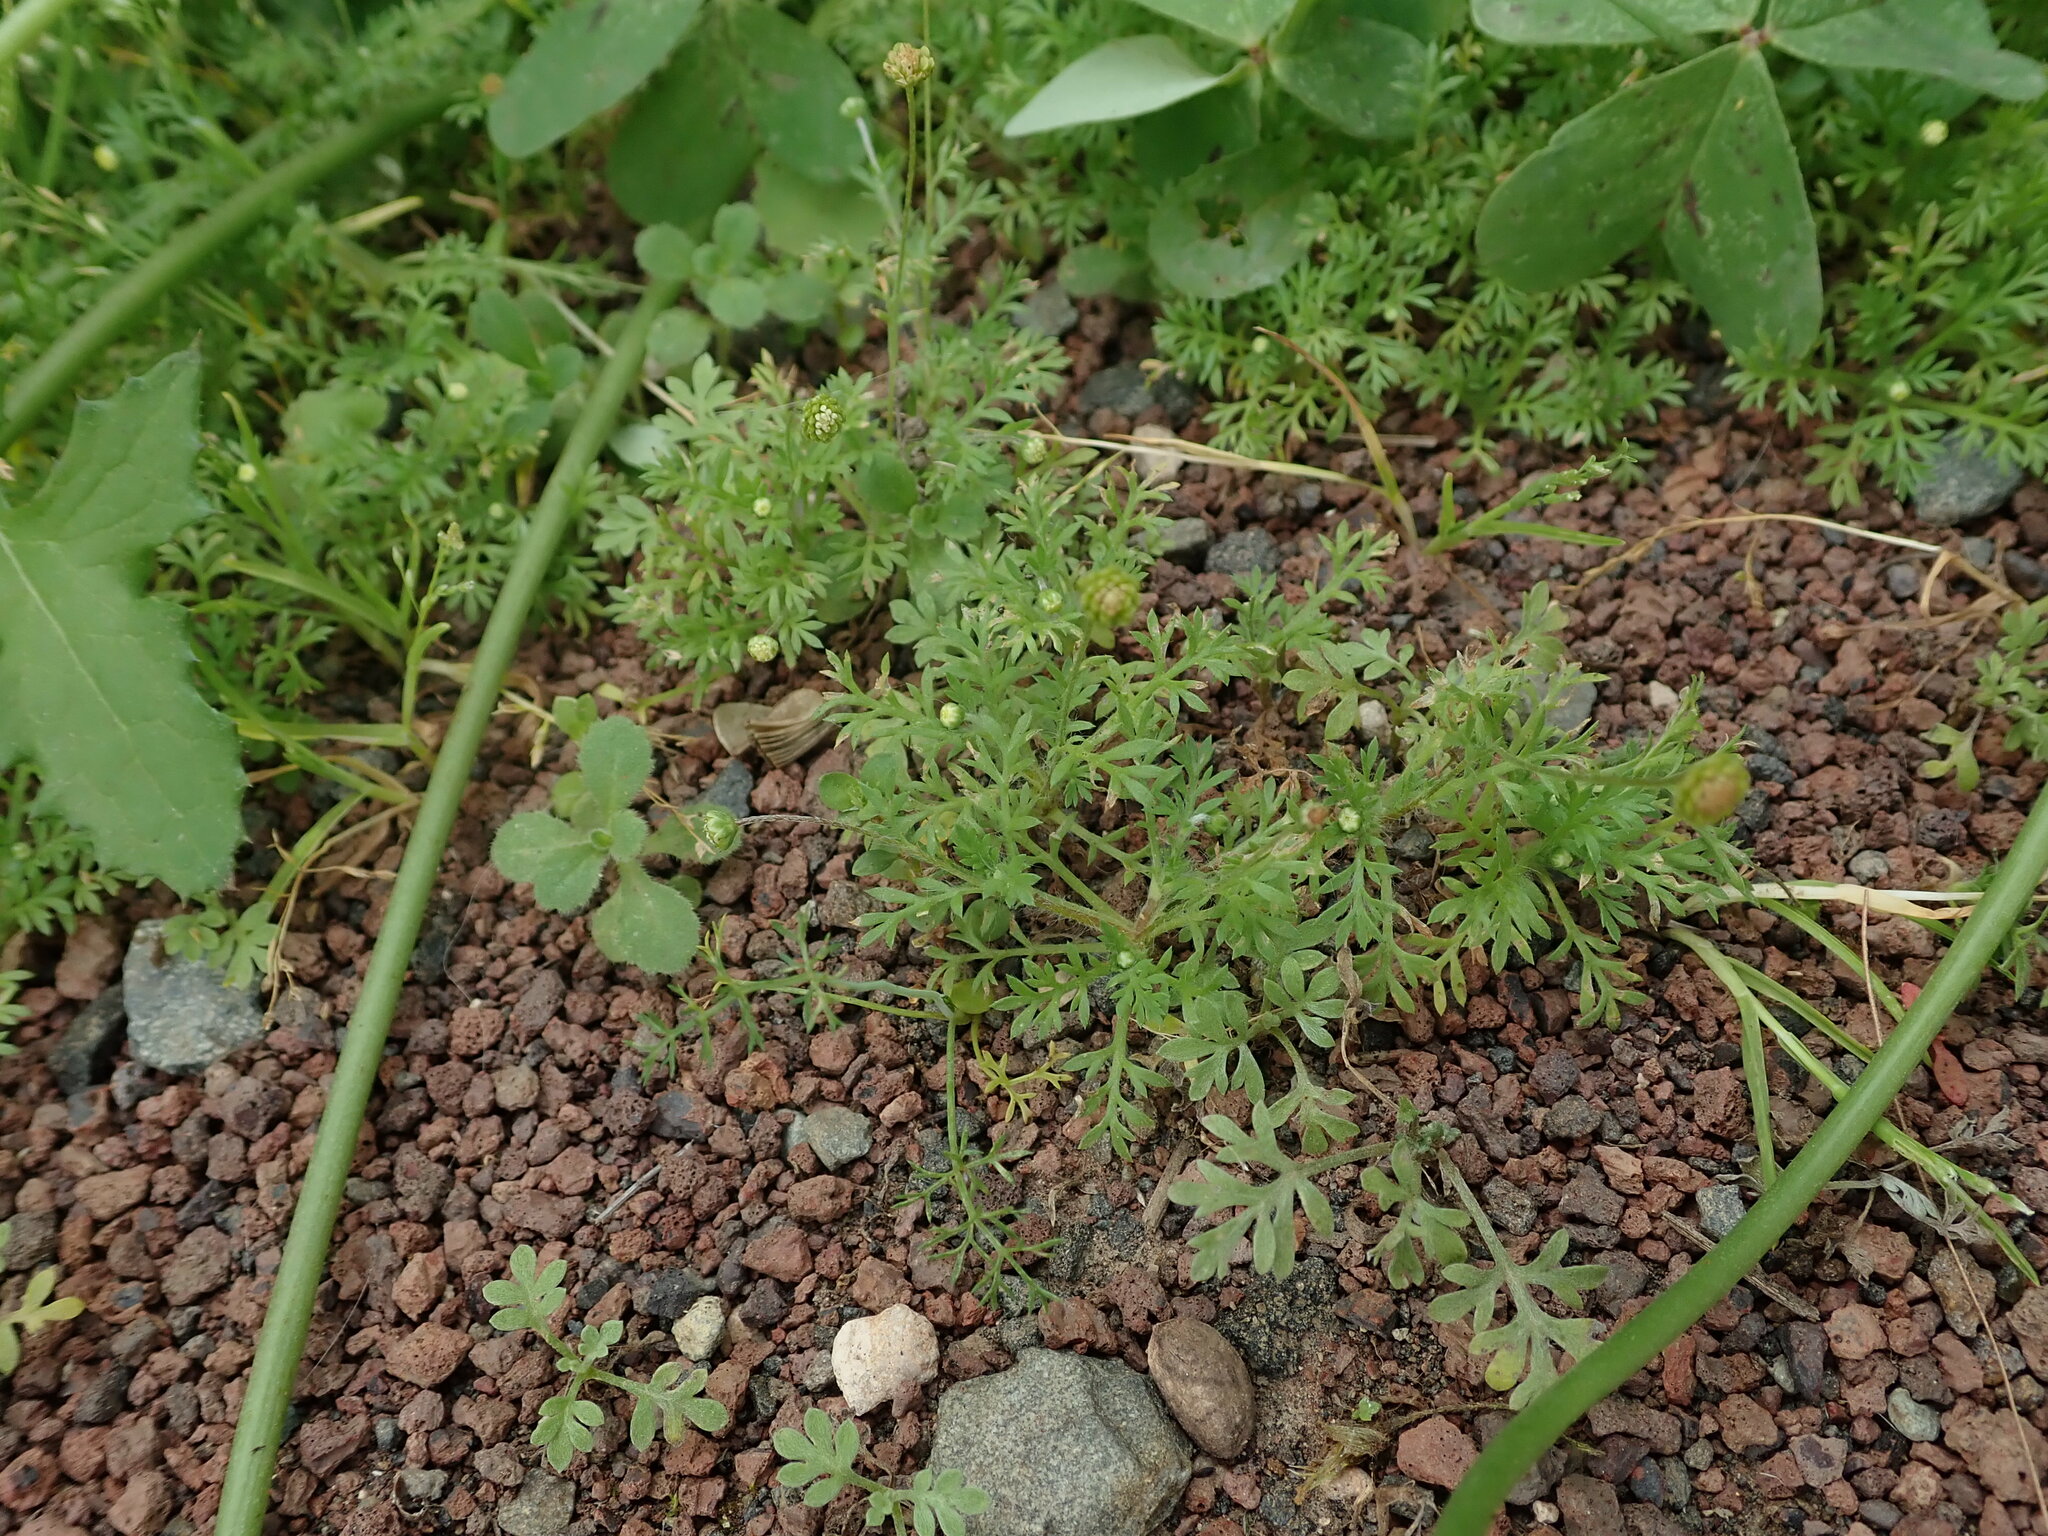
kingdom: Plantae
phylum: Tracheophyta
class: Magnoliopsida
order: Asterales
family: Asteraceae
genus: Cotula
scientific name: Cotula australis
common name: Australian waterbuttons
